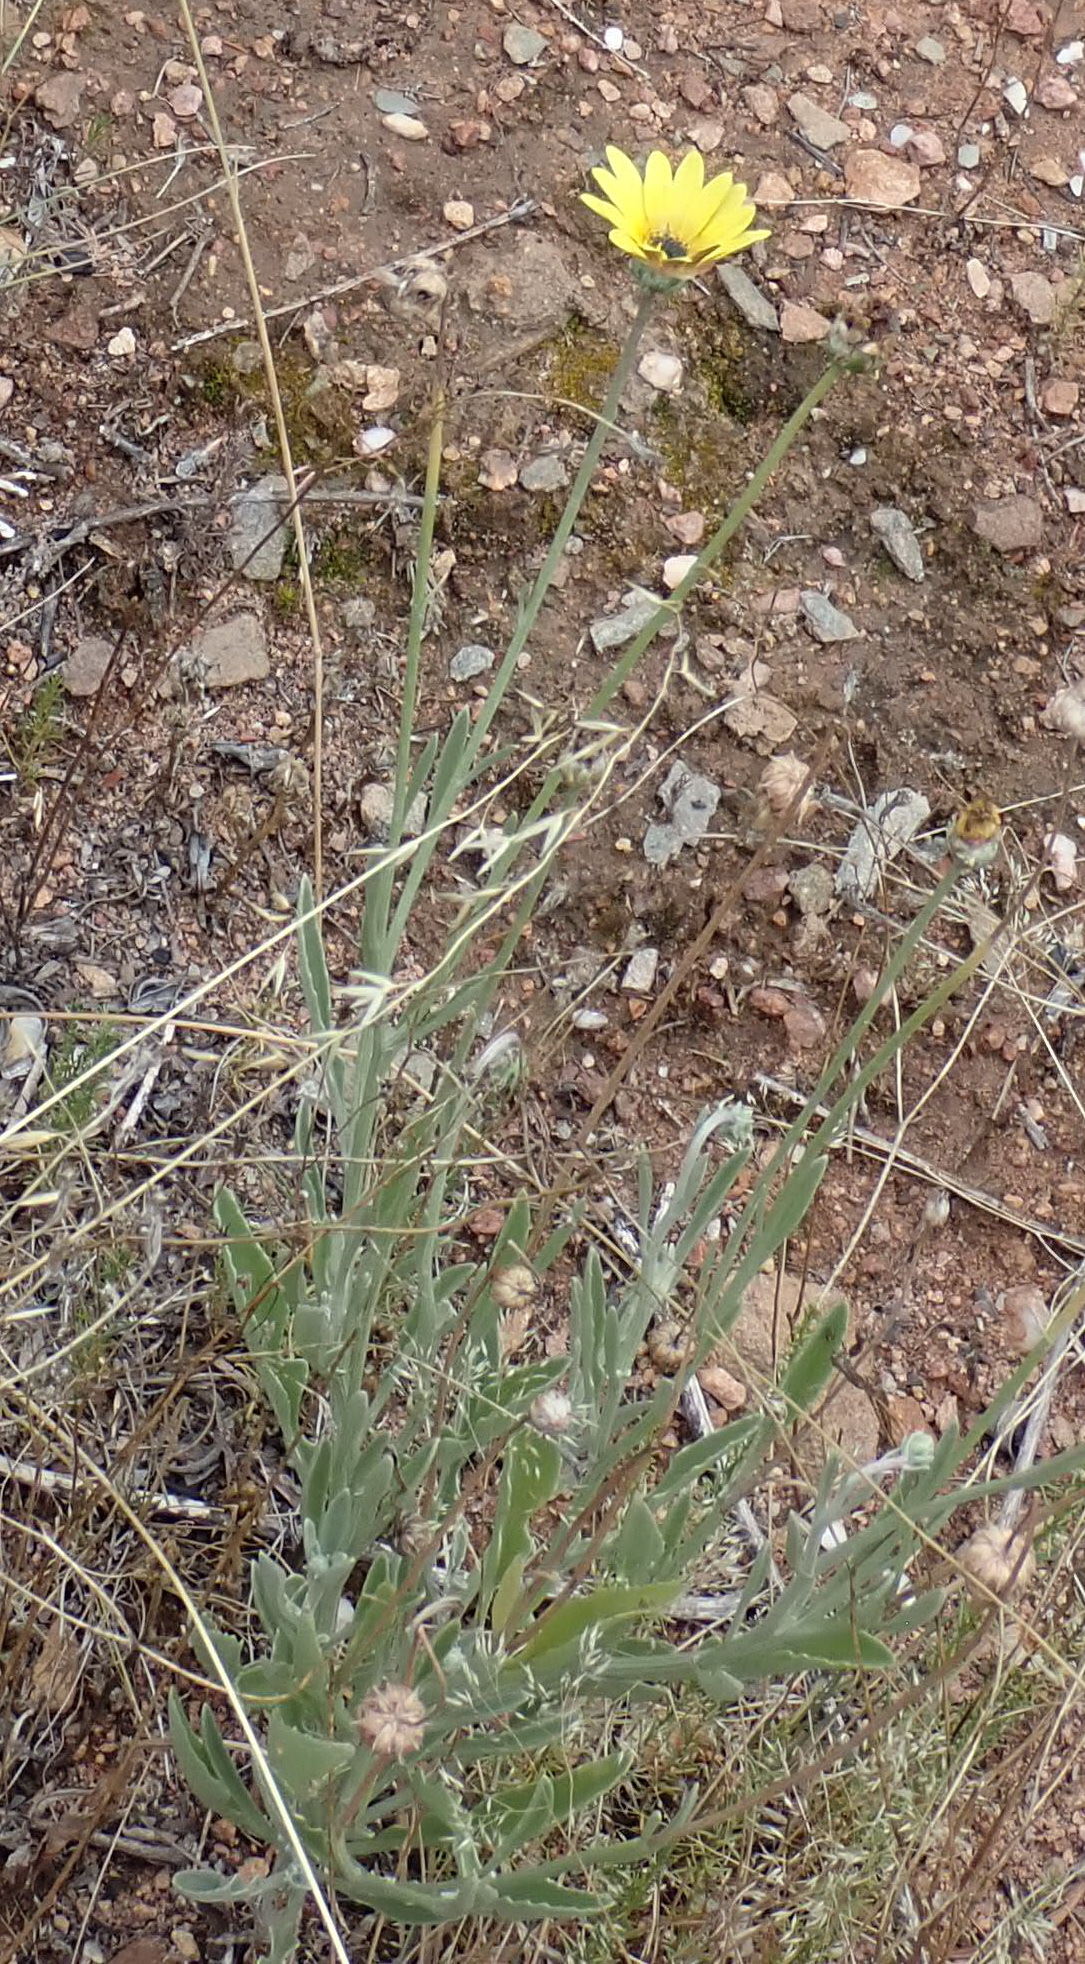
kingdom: Plantae
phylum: Tracheophyta
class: Magnoliopsida
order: Asterales
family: Asteraceae
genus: Arctotis
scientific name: Arctotis lanceolata
